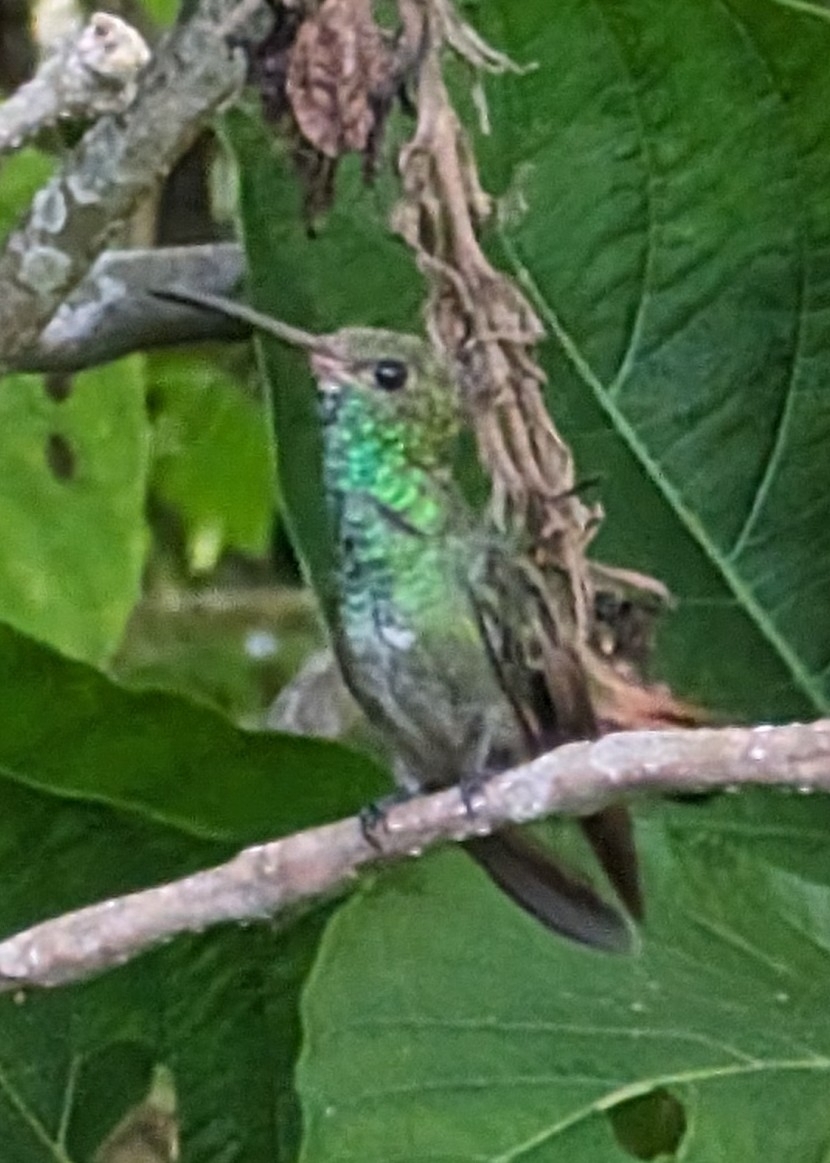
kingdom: Animalia
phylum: Chordata
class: Aves
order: Apodiformes
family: Trochilidae
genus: Amazilia
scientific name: Amazilia tzacatl
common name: Rufous-tailed hummingbird
